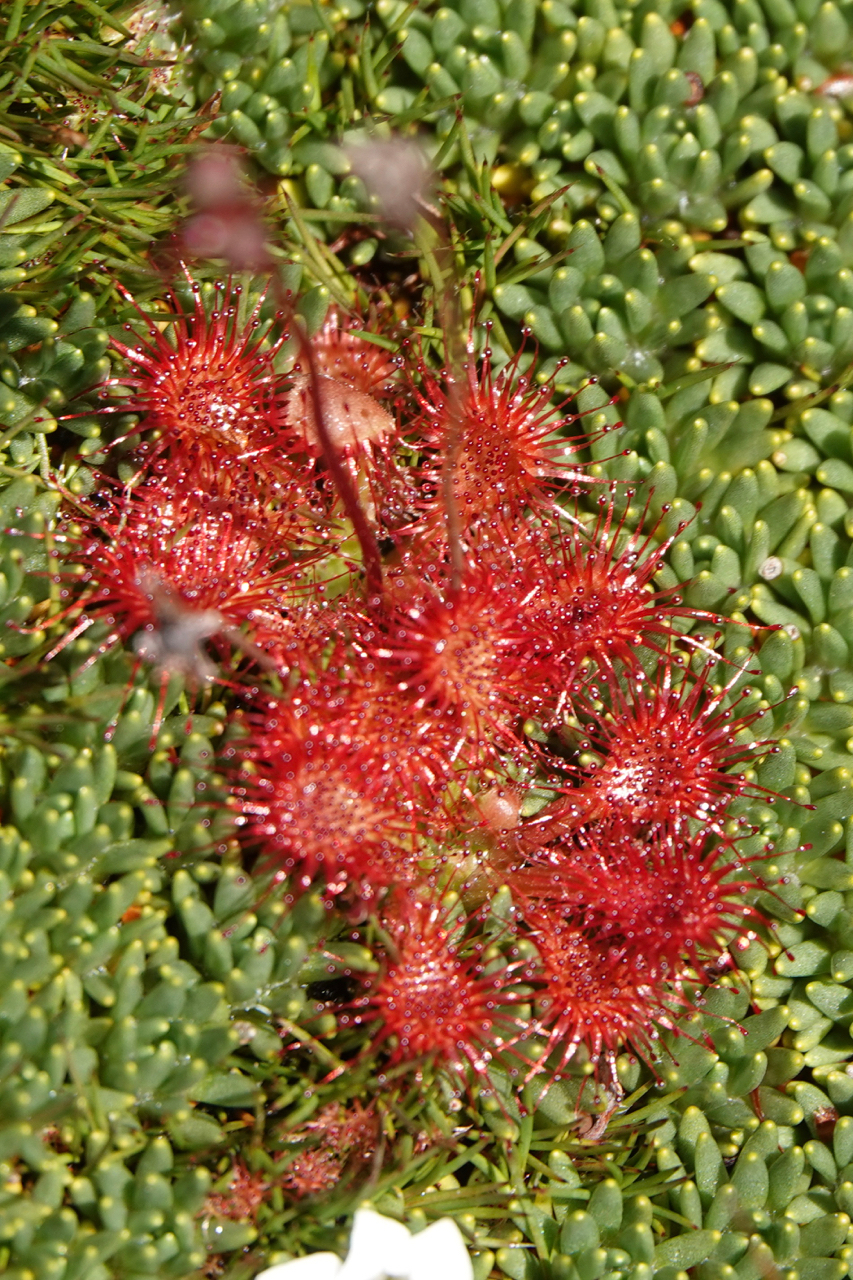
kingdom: Plantae
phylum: Tracheophyta
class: Magnoliopsida
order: Caryophyllales
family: Droseraceae
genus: Drosera
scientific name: Drosera spatulata
